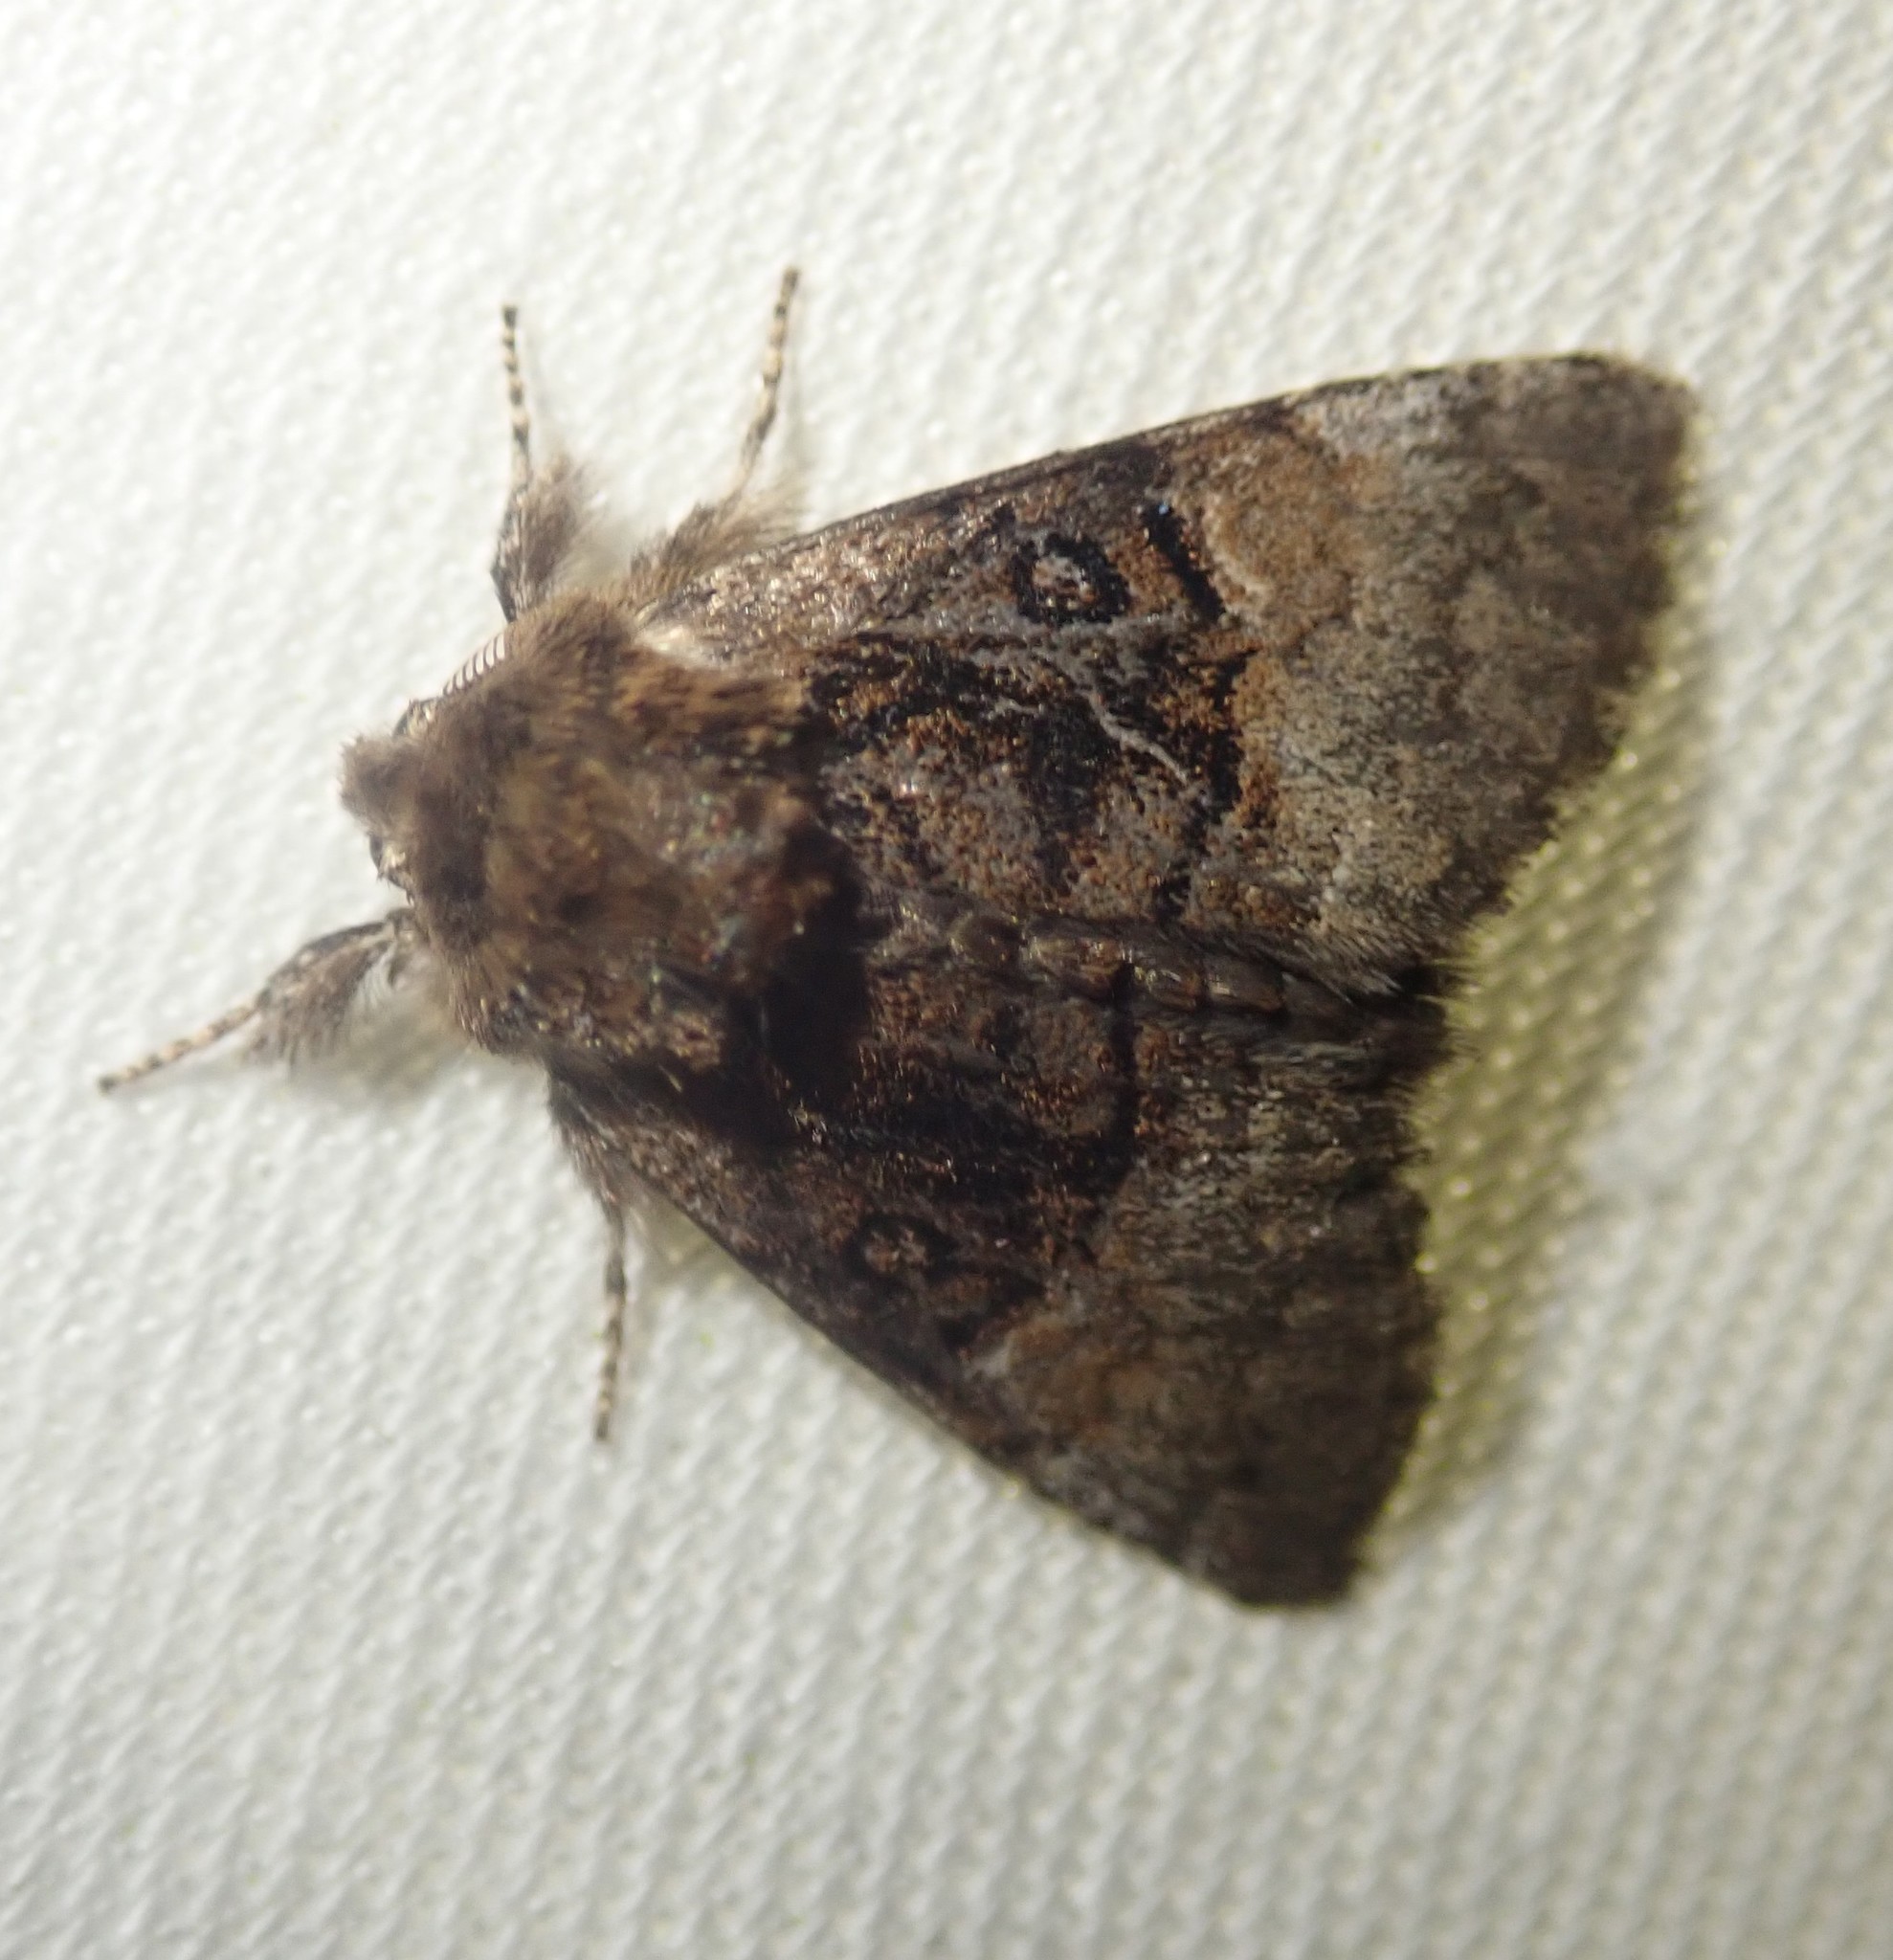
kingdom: Animalia
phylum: Arthropoda
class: Insecta
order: Lepidoptera
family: Noctuidae
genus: Colocasia
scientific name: Colocasia coryli
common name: Nut-tree tussock
